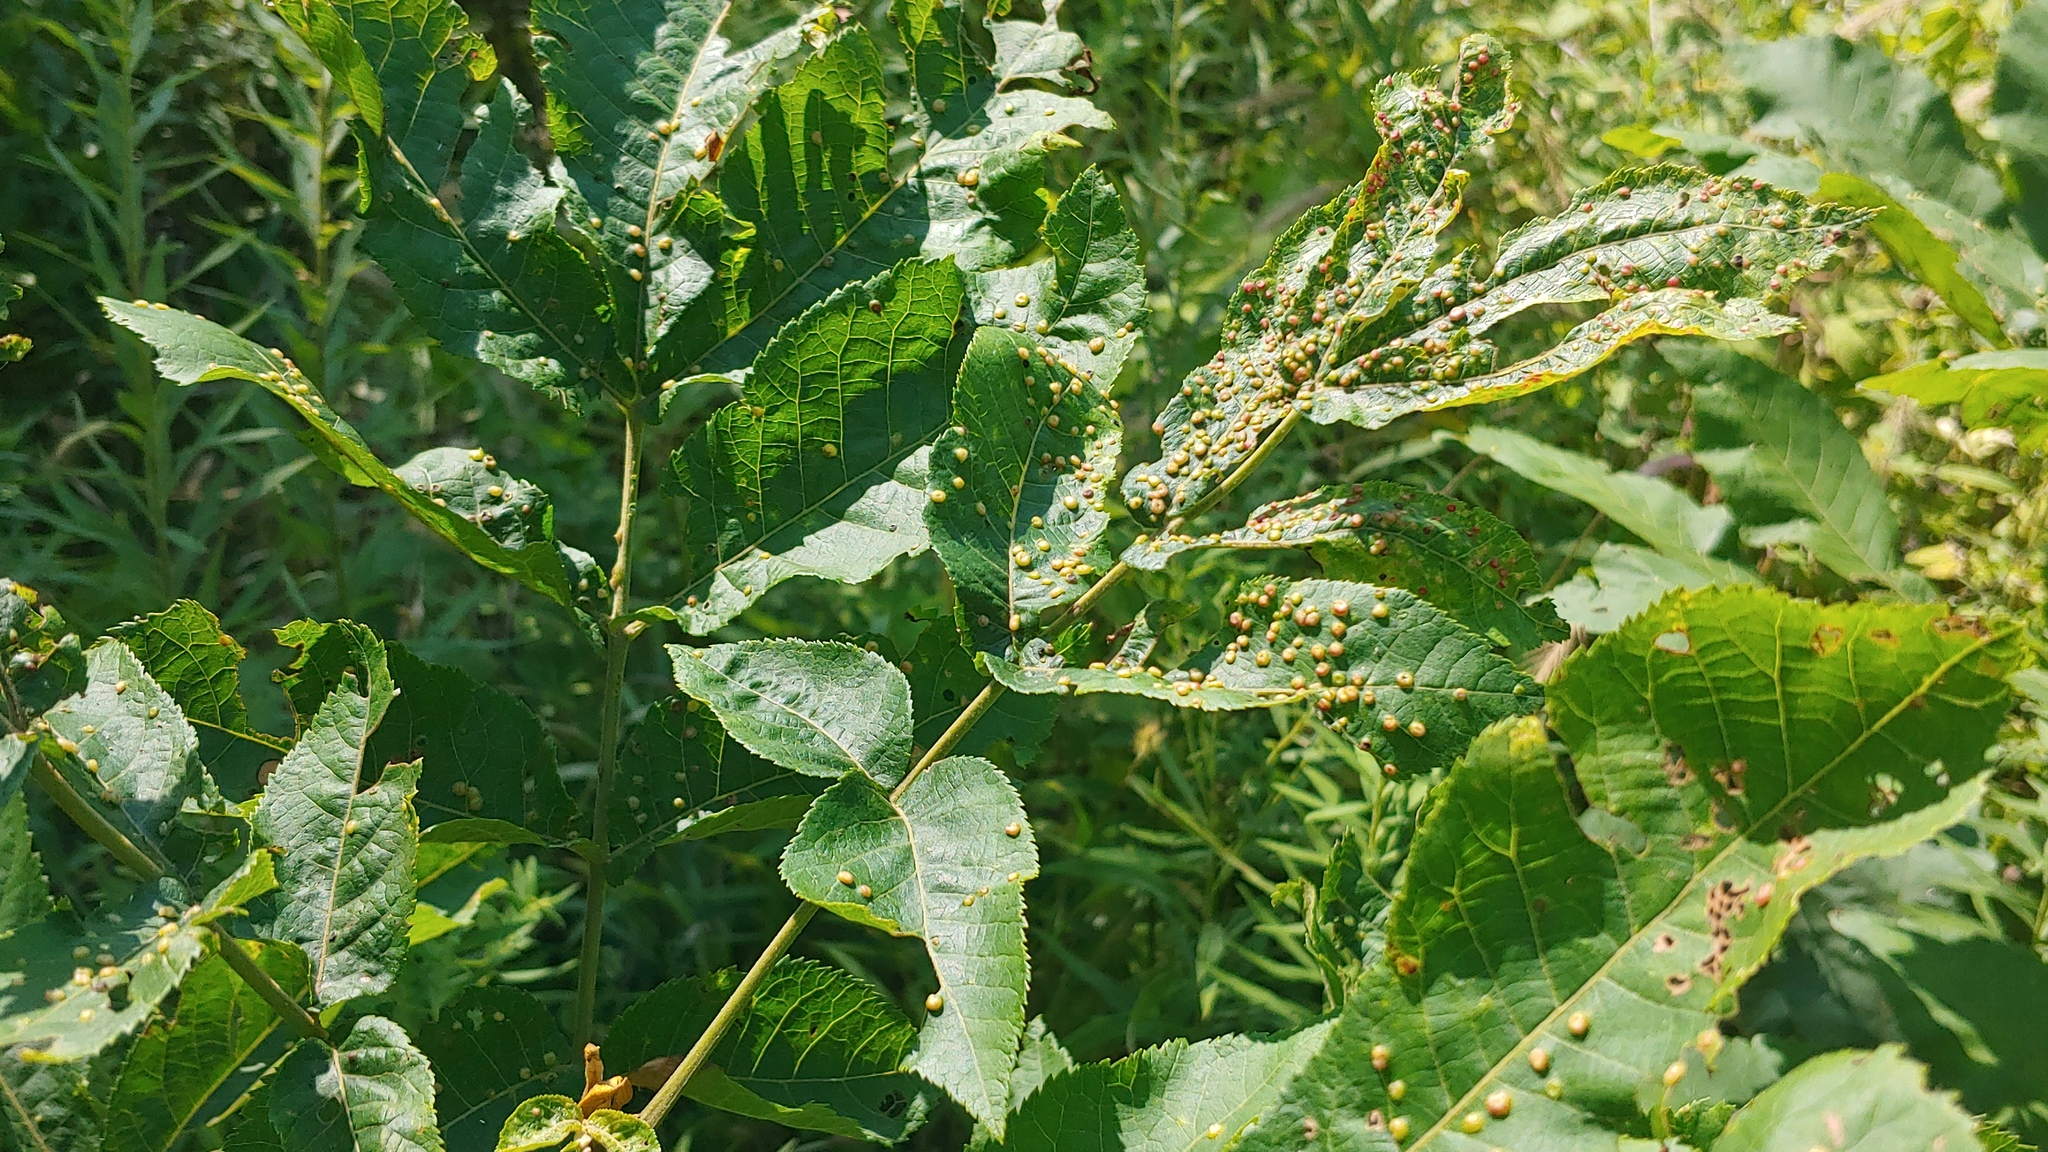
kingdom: Animalia
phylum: Arthropoda
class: Insecta
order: Hemiptera
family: Phylloxeridae
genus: Phylloxera
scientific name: Phylloxera caryae-semen
